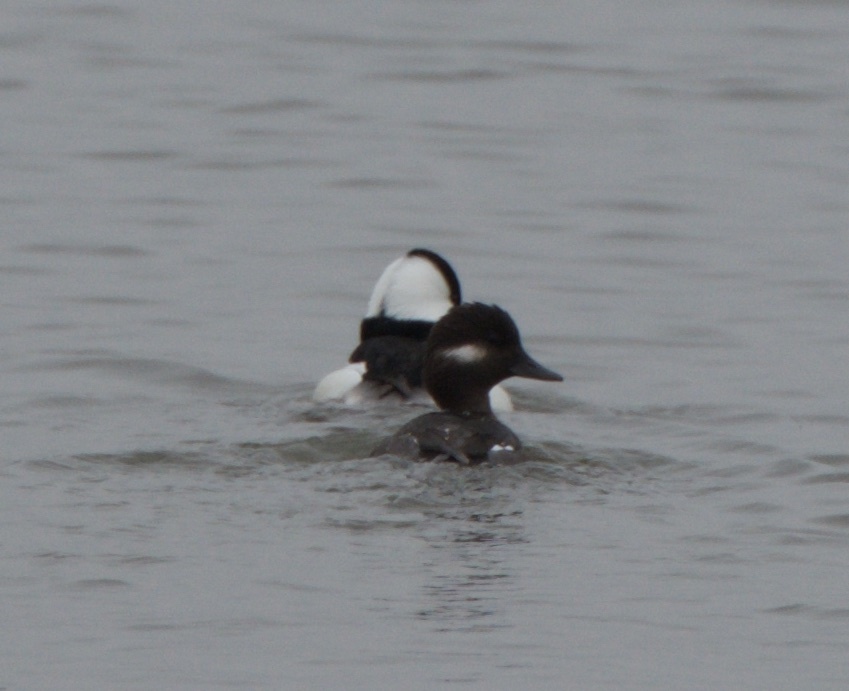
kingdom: Animalia
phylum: Chordata
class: Aves
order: Anseriformes
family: Anatidae
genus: Bucephala
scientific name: Bucephala albeola
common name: Bufflehead
